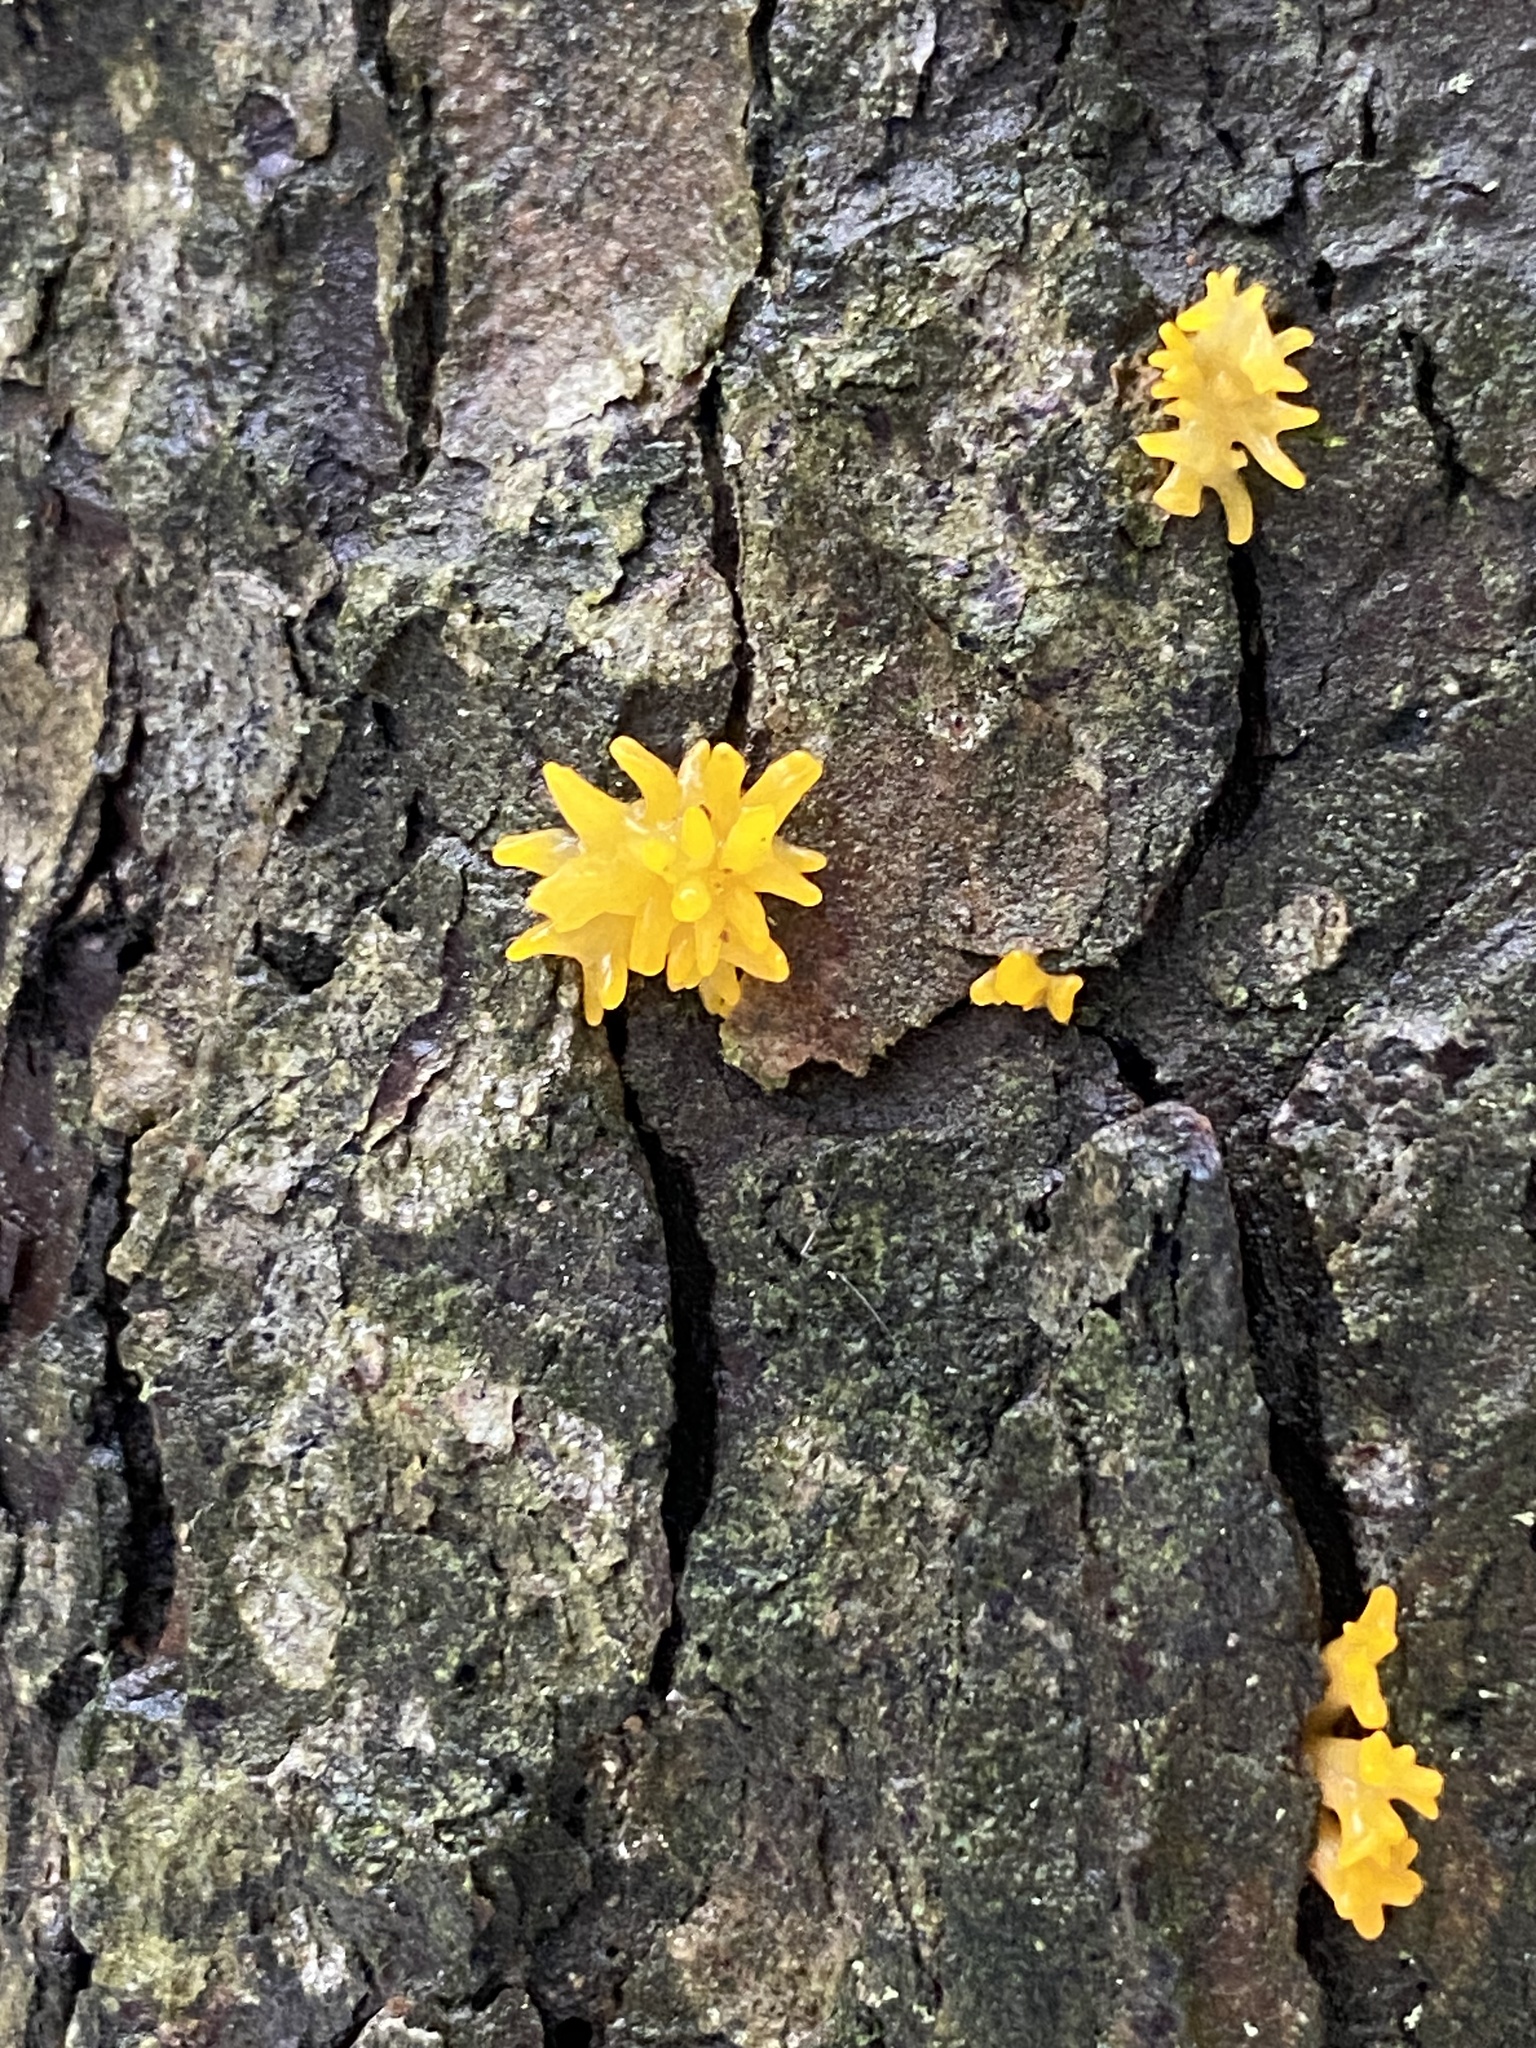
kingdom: Fungi
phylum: Basidiomycota
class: Dacrymycetes
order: Dacrymycetales
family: Dacrymycetaceae
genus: Calocera
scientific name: Calocera cornea
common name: Small stagshorn
